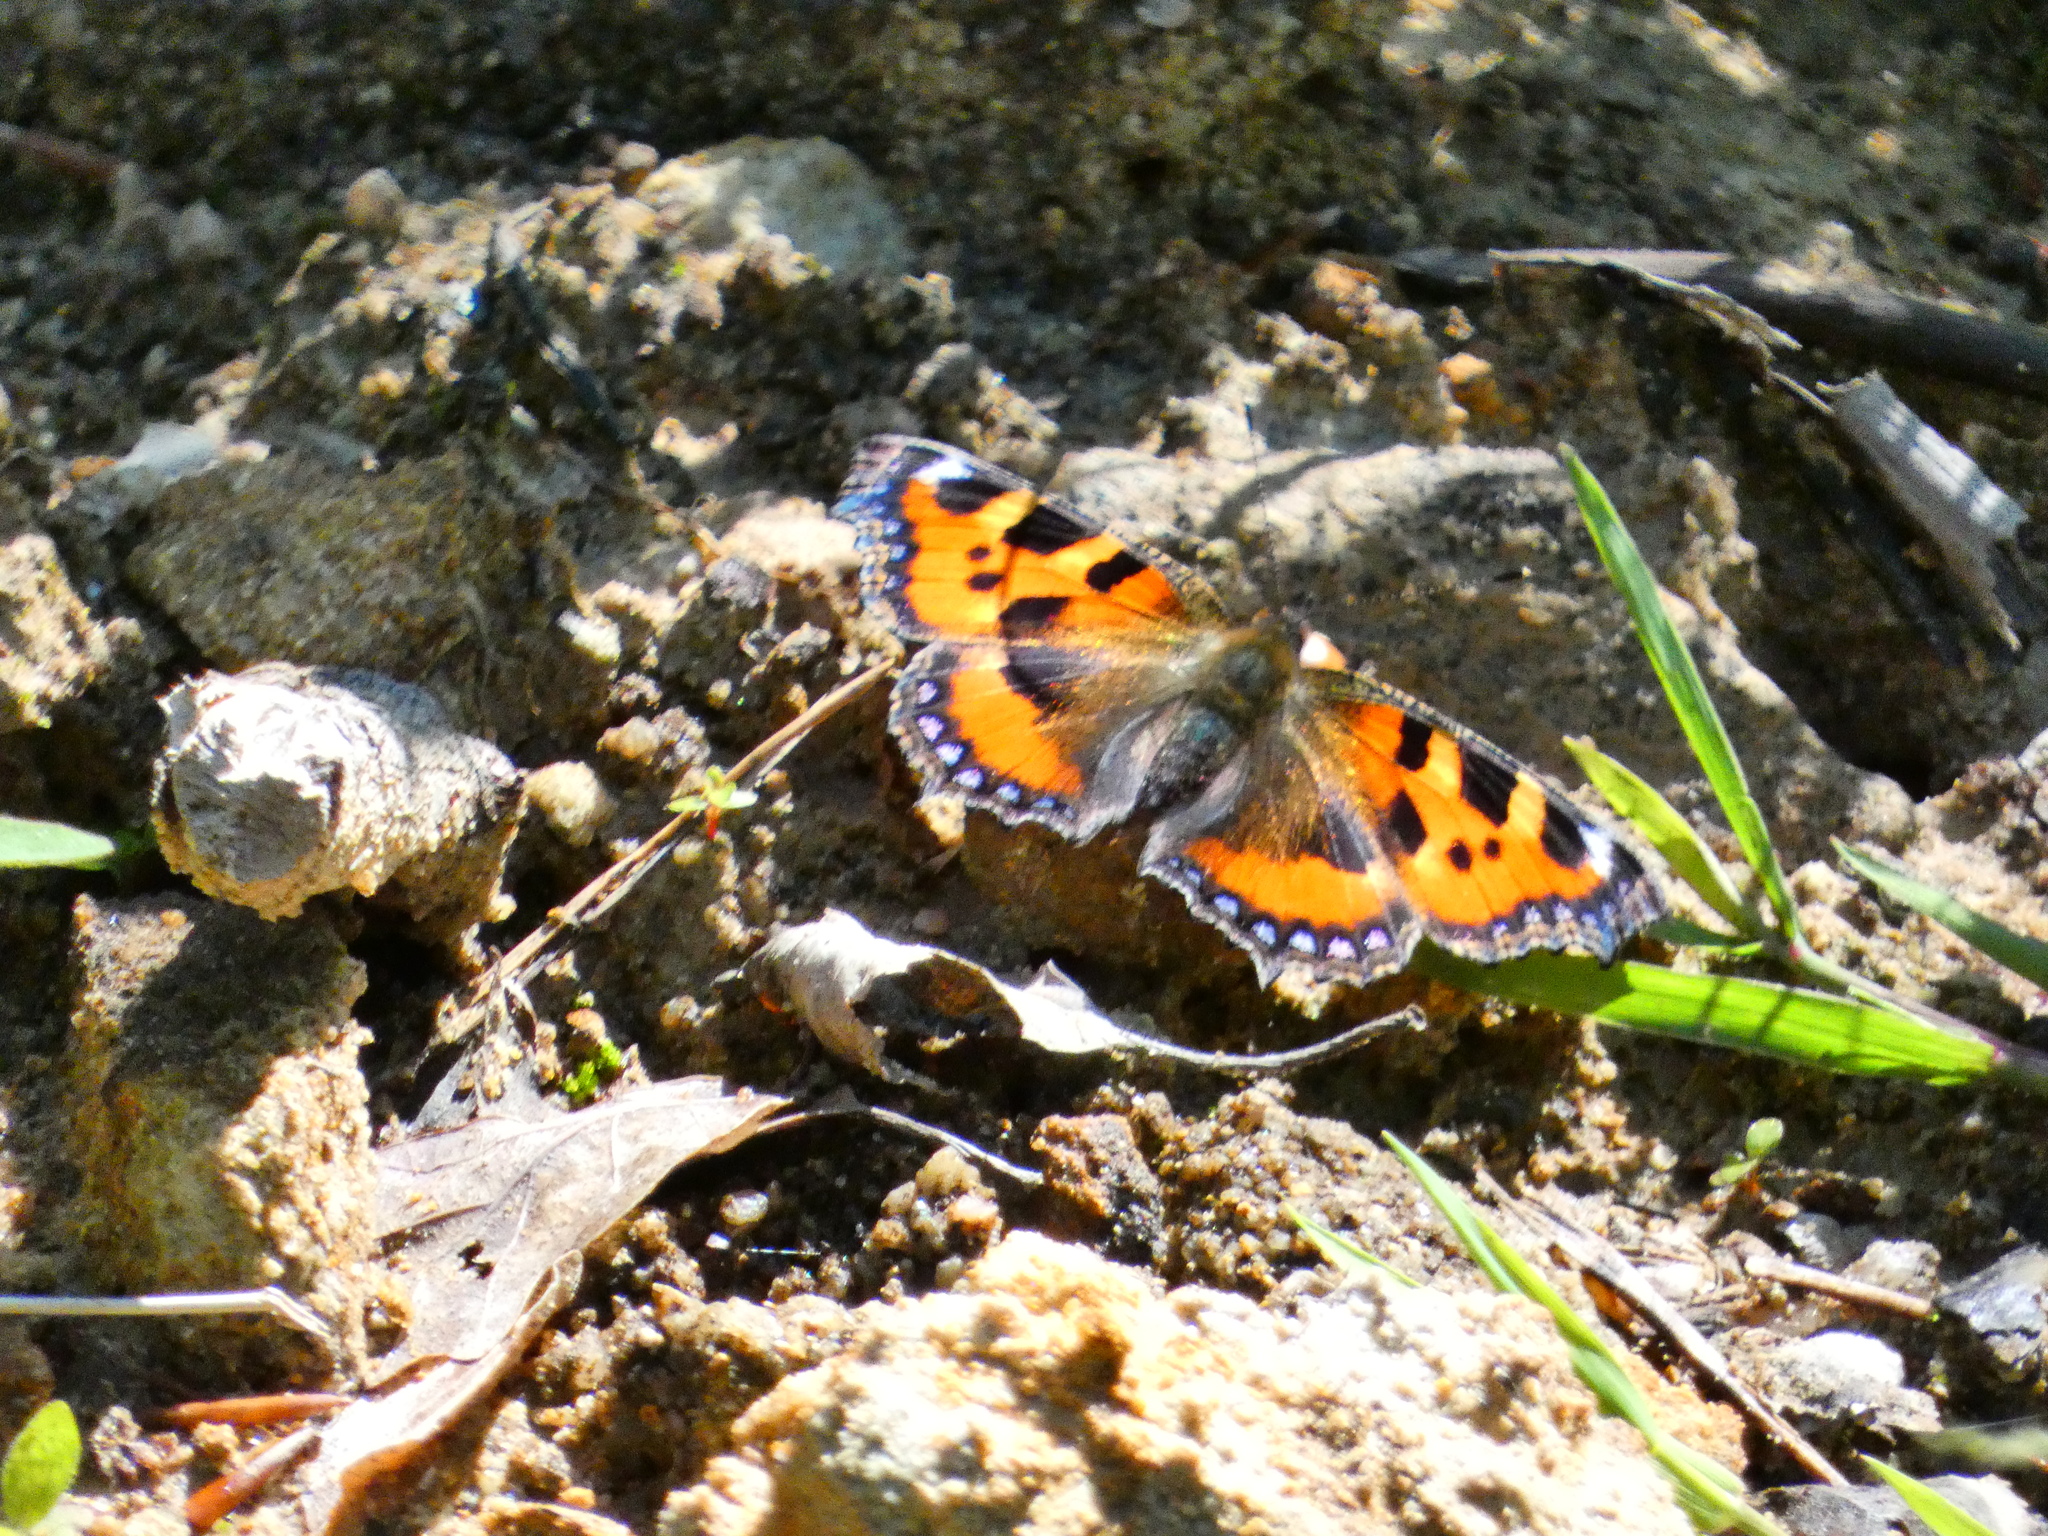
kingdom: Animalia
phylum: Arthropoda
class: Insecta
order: Lepidoptera
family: Nymphalidae
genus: Aglais
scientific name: Aglais urticae
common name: Small tortoiseshell
